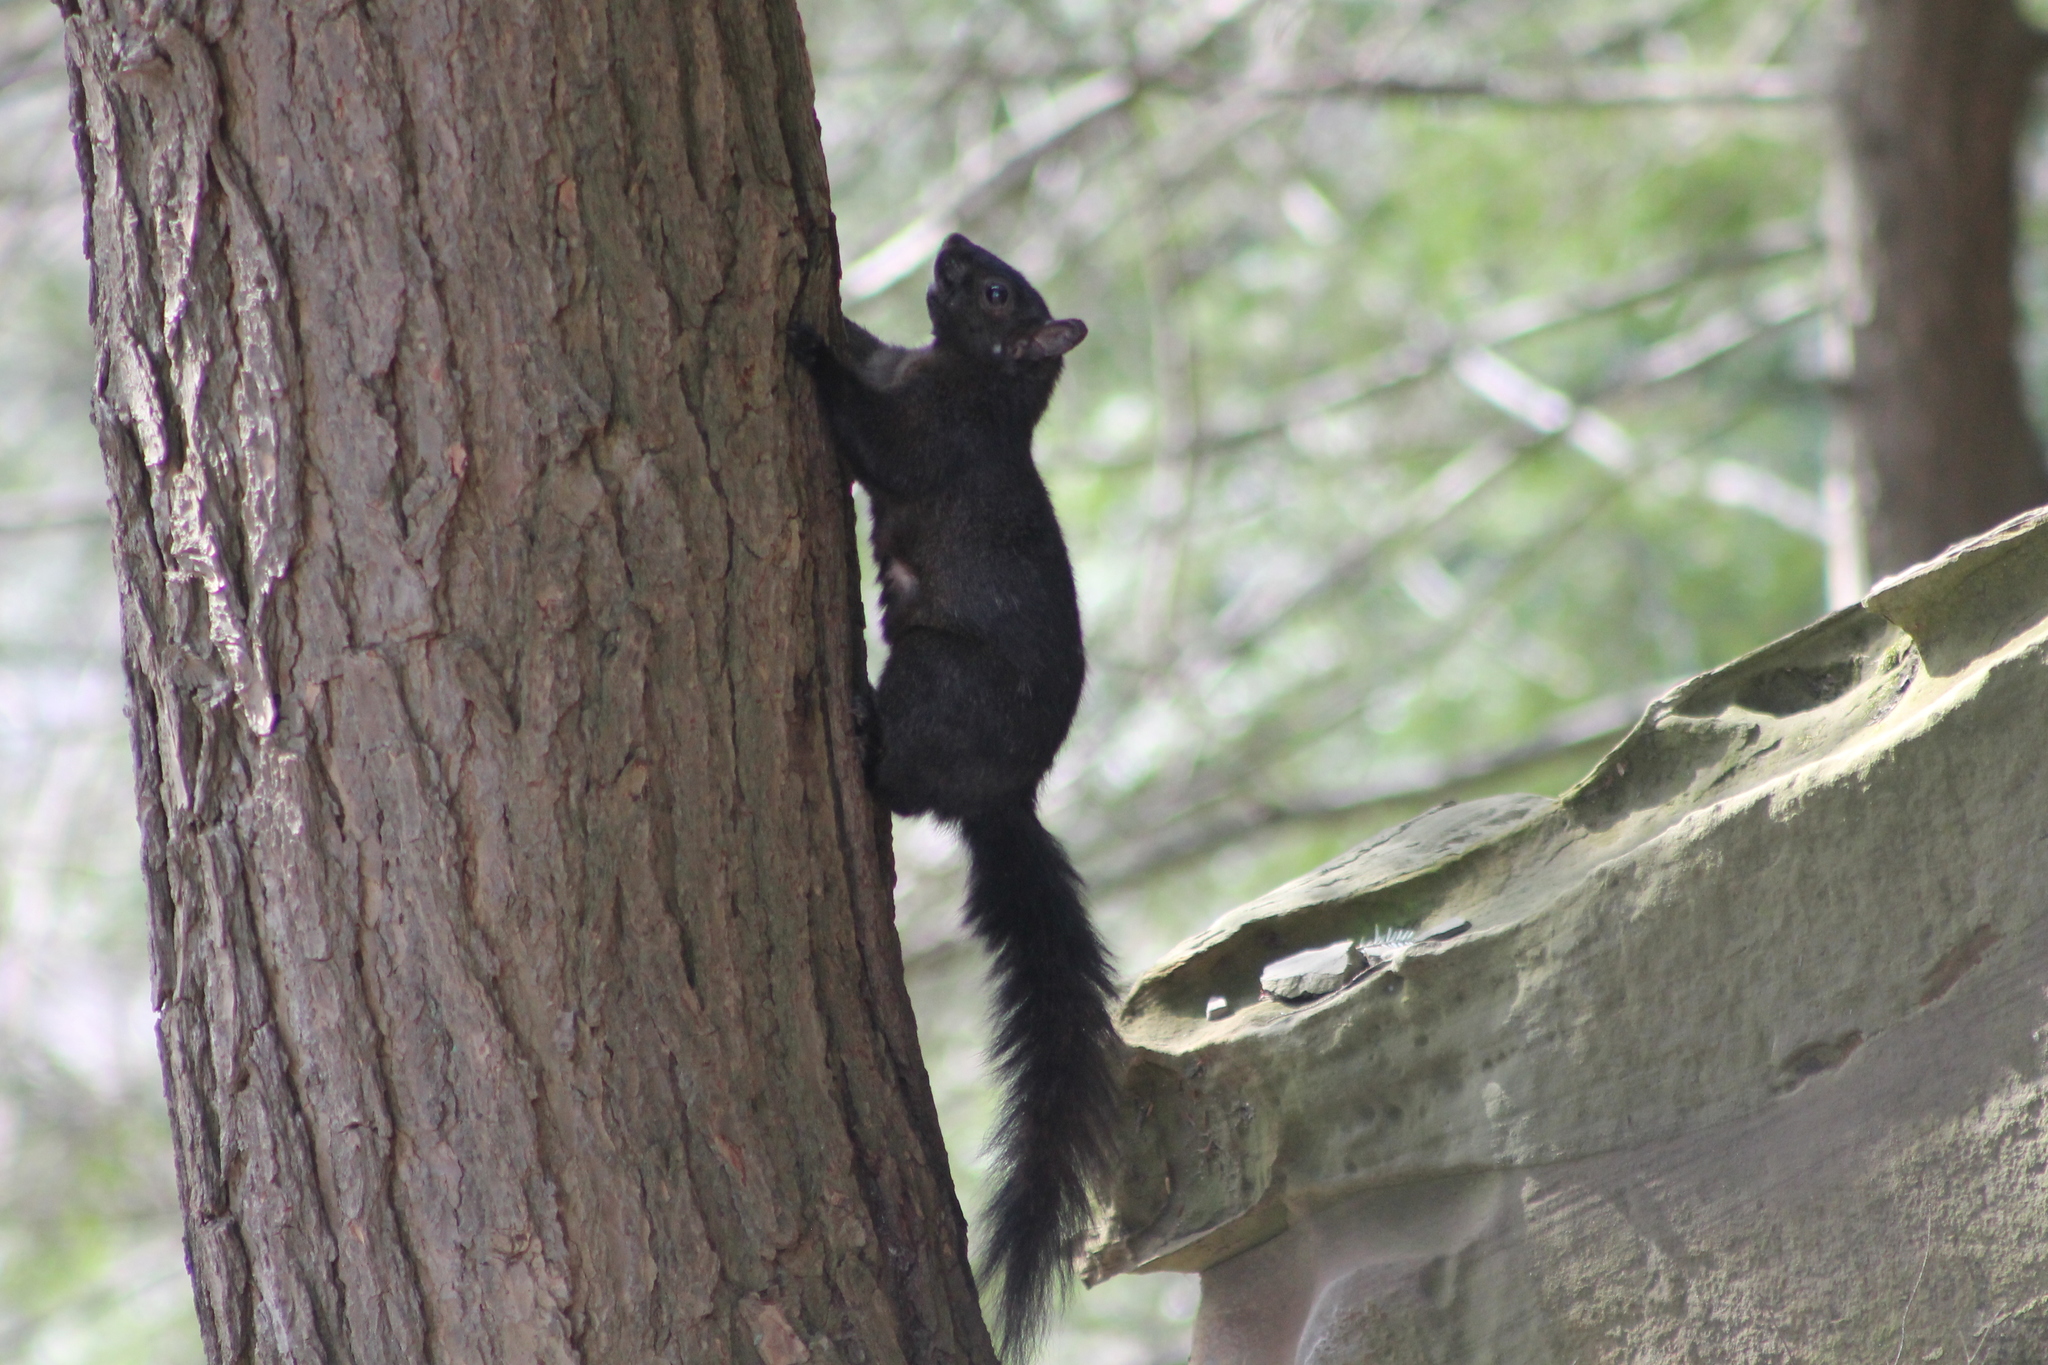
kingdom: Animalia
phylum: Chordata
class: Mammalia
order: Rodentia
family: Sciuridae
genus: Sciurus
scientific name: Sciurus carolinensis
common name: Eastern gray squirrel
